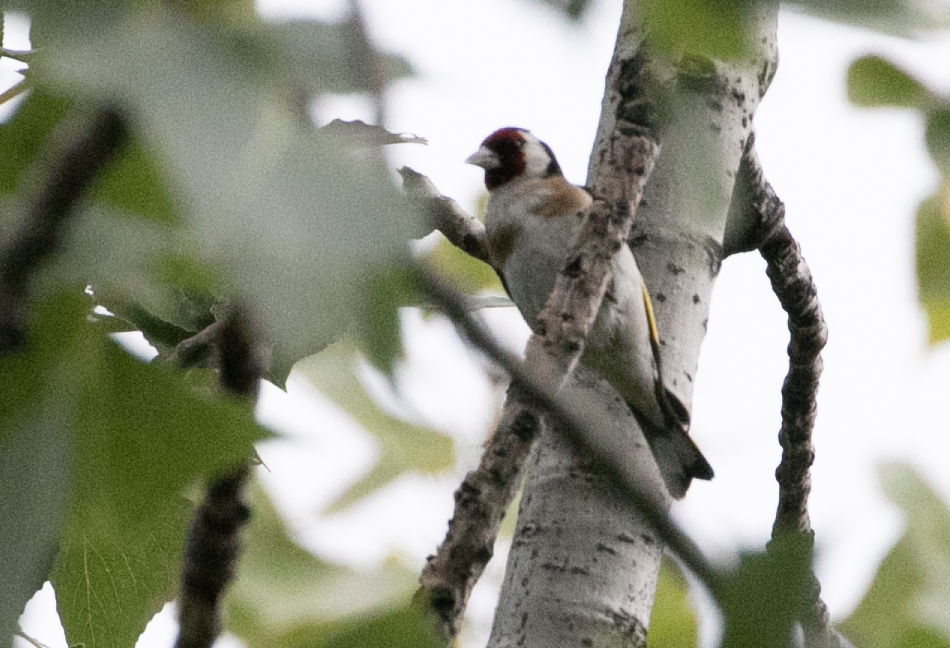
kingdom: Animalia
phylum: Chordata
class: Aves
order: Passeriformes
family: Fringillidae
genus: Carduelis
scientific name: Carduelis carduelis
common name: European goldfinch
